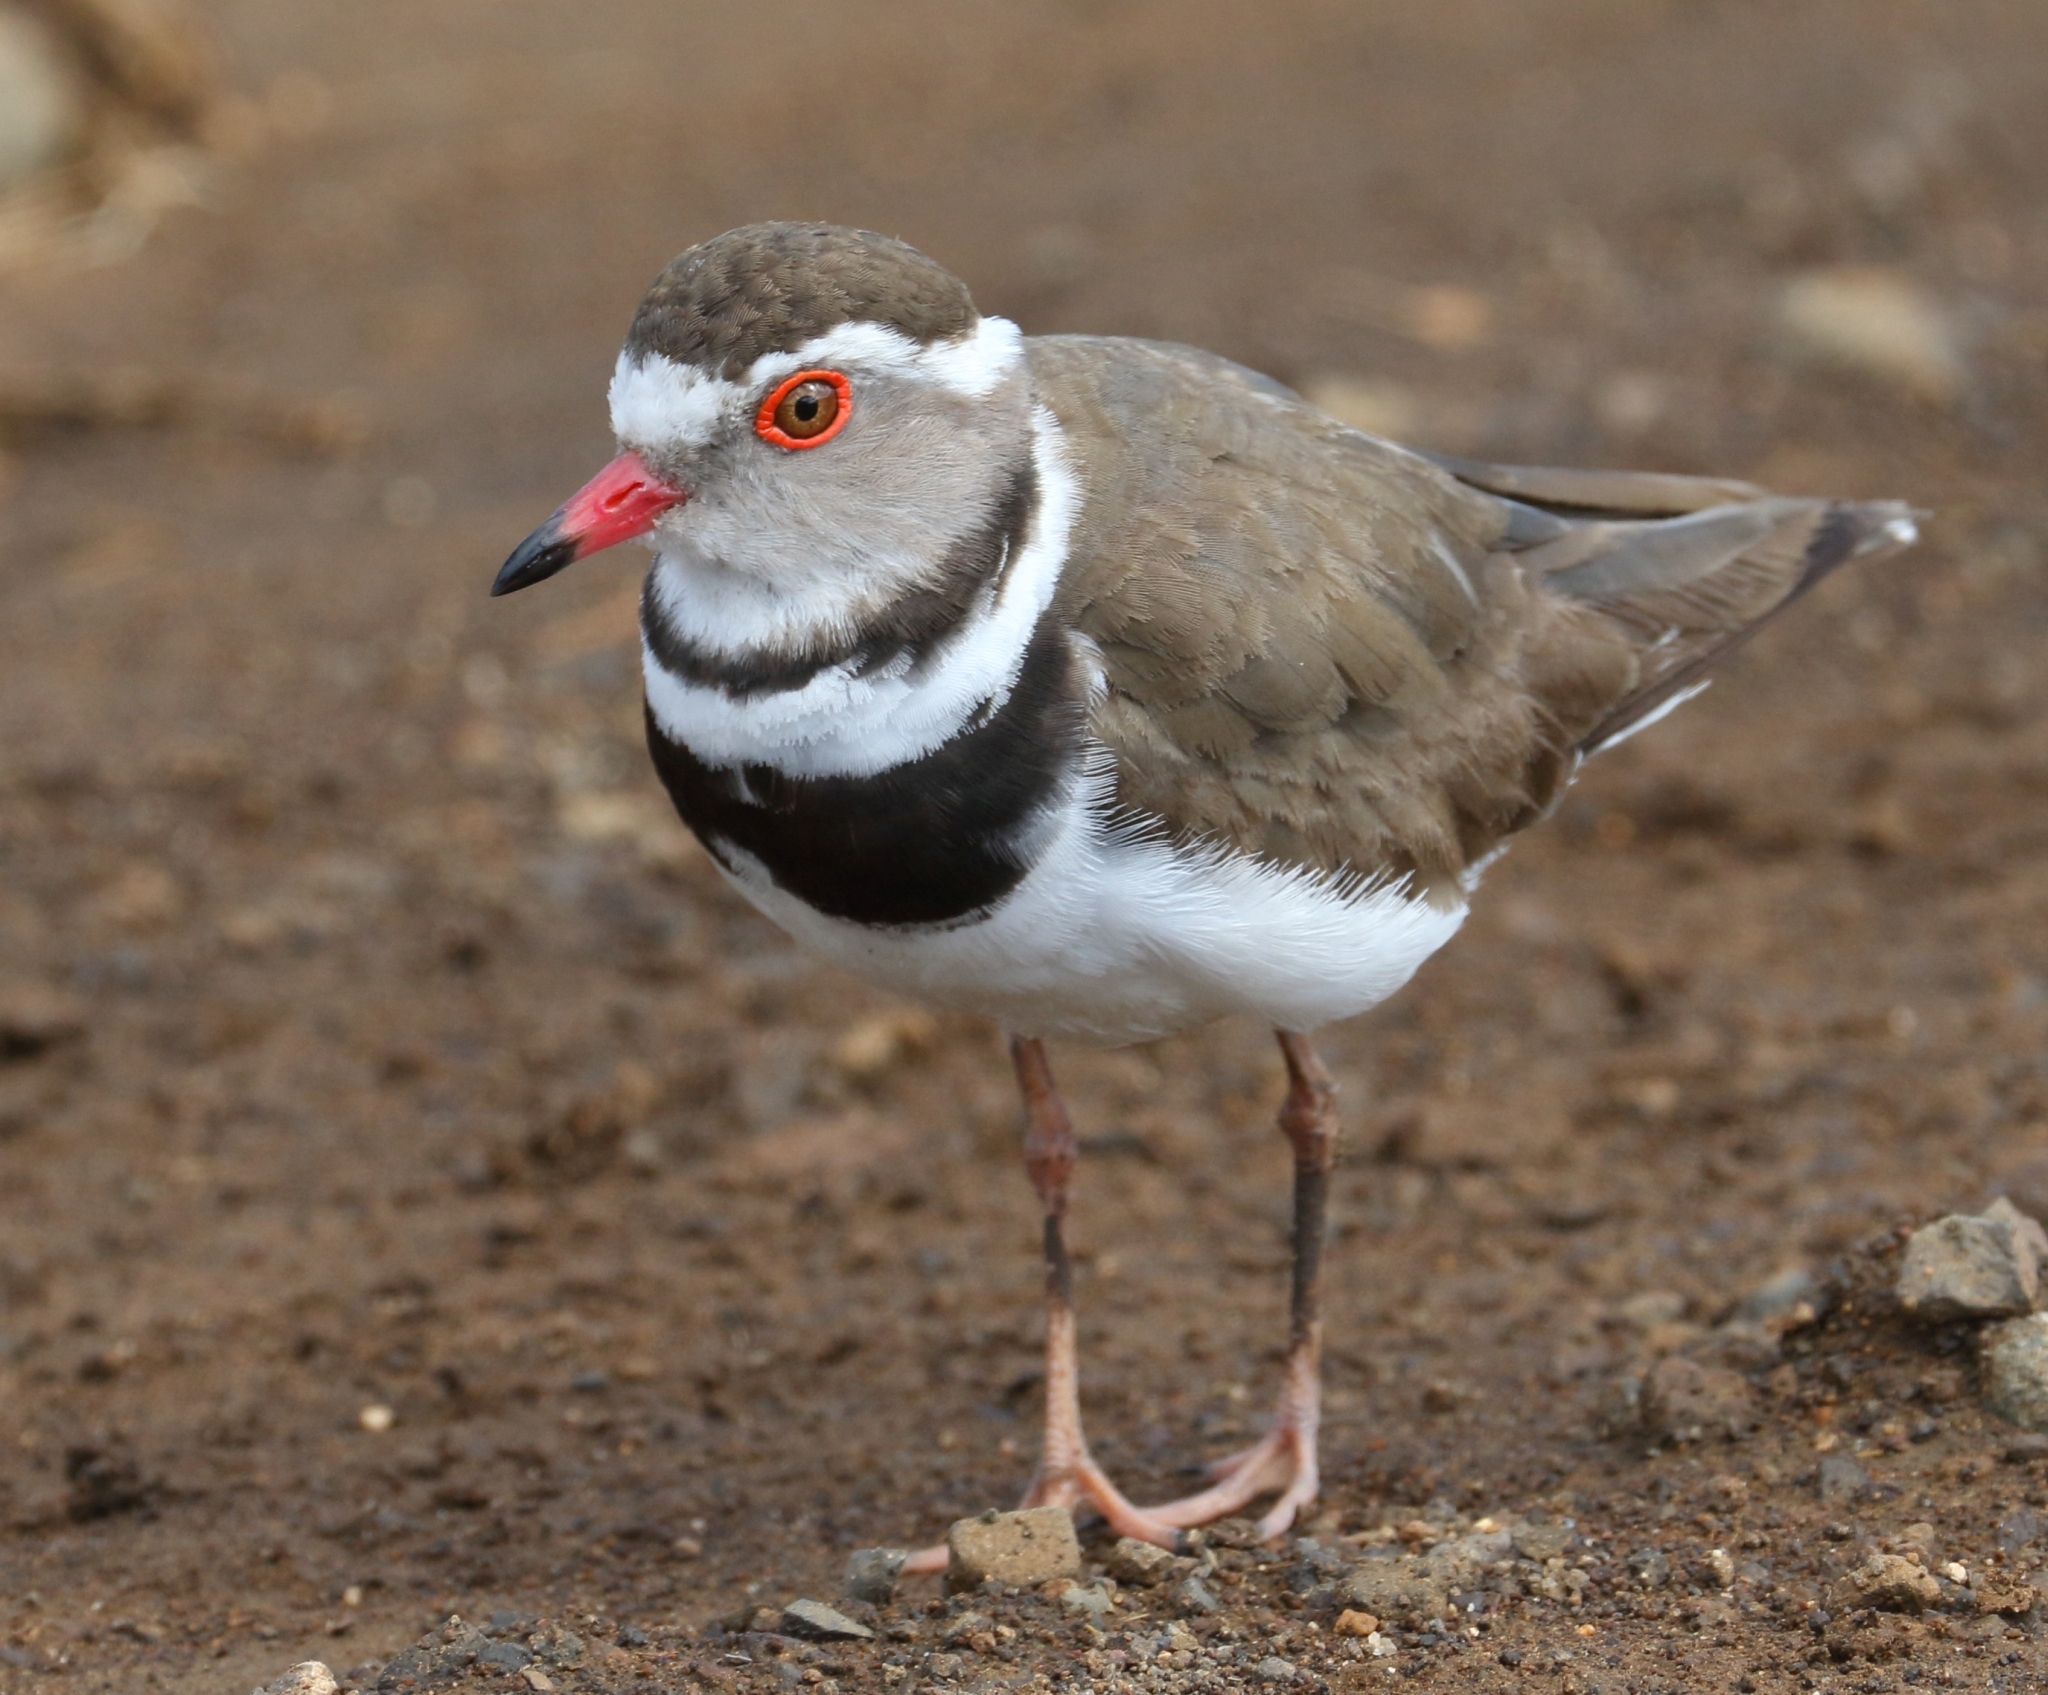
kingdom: Animalia
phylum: Chordata
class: Aves
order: Charadriiformes
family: Charadriidae
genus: Charadrius
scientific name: Charadrius tricollaris
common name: Three-banded plover
